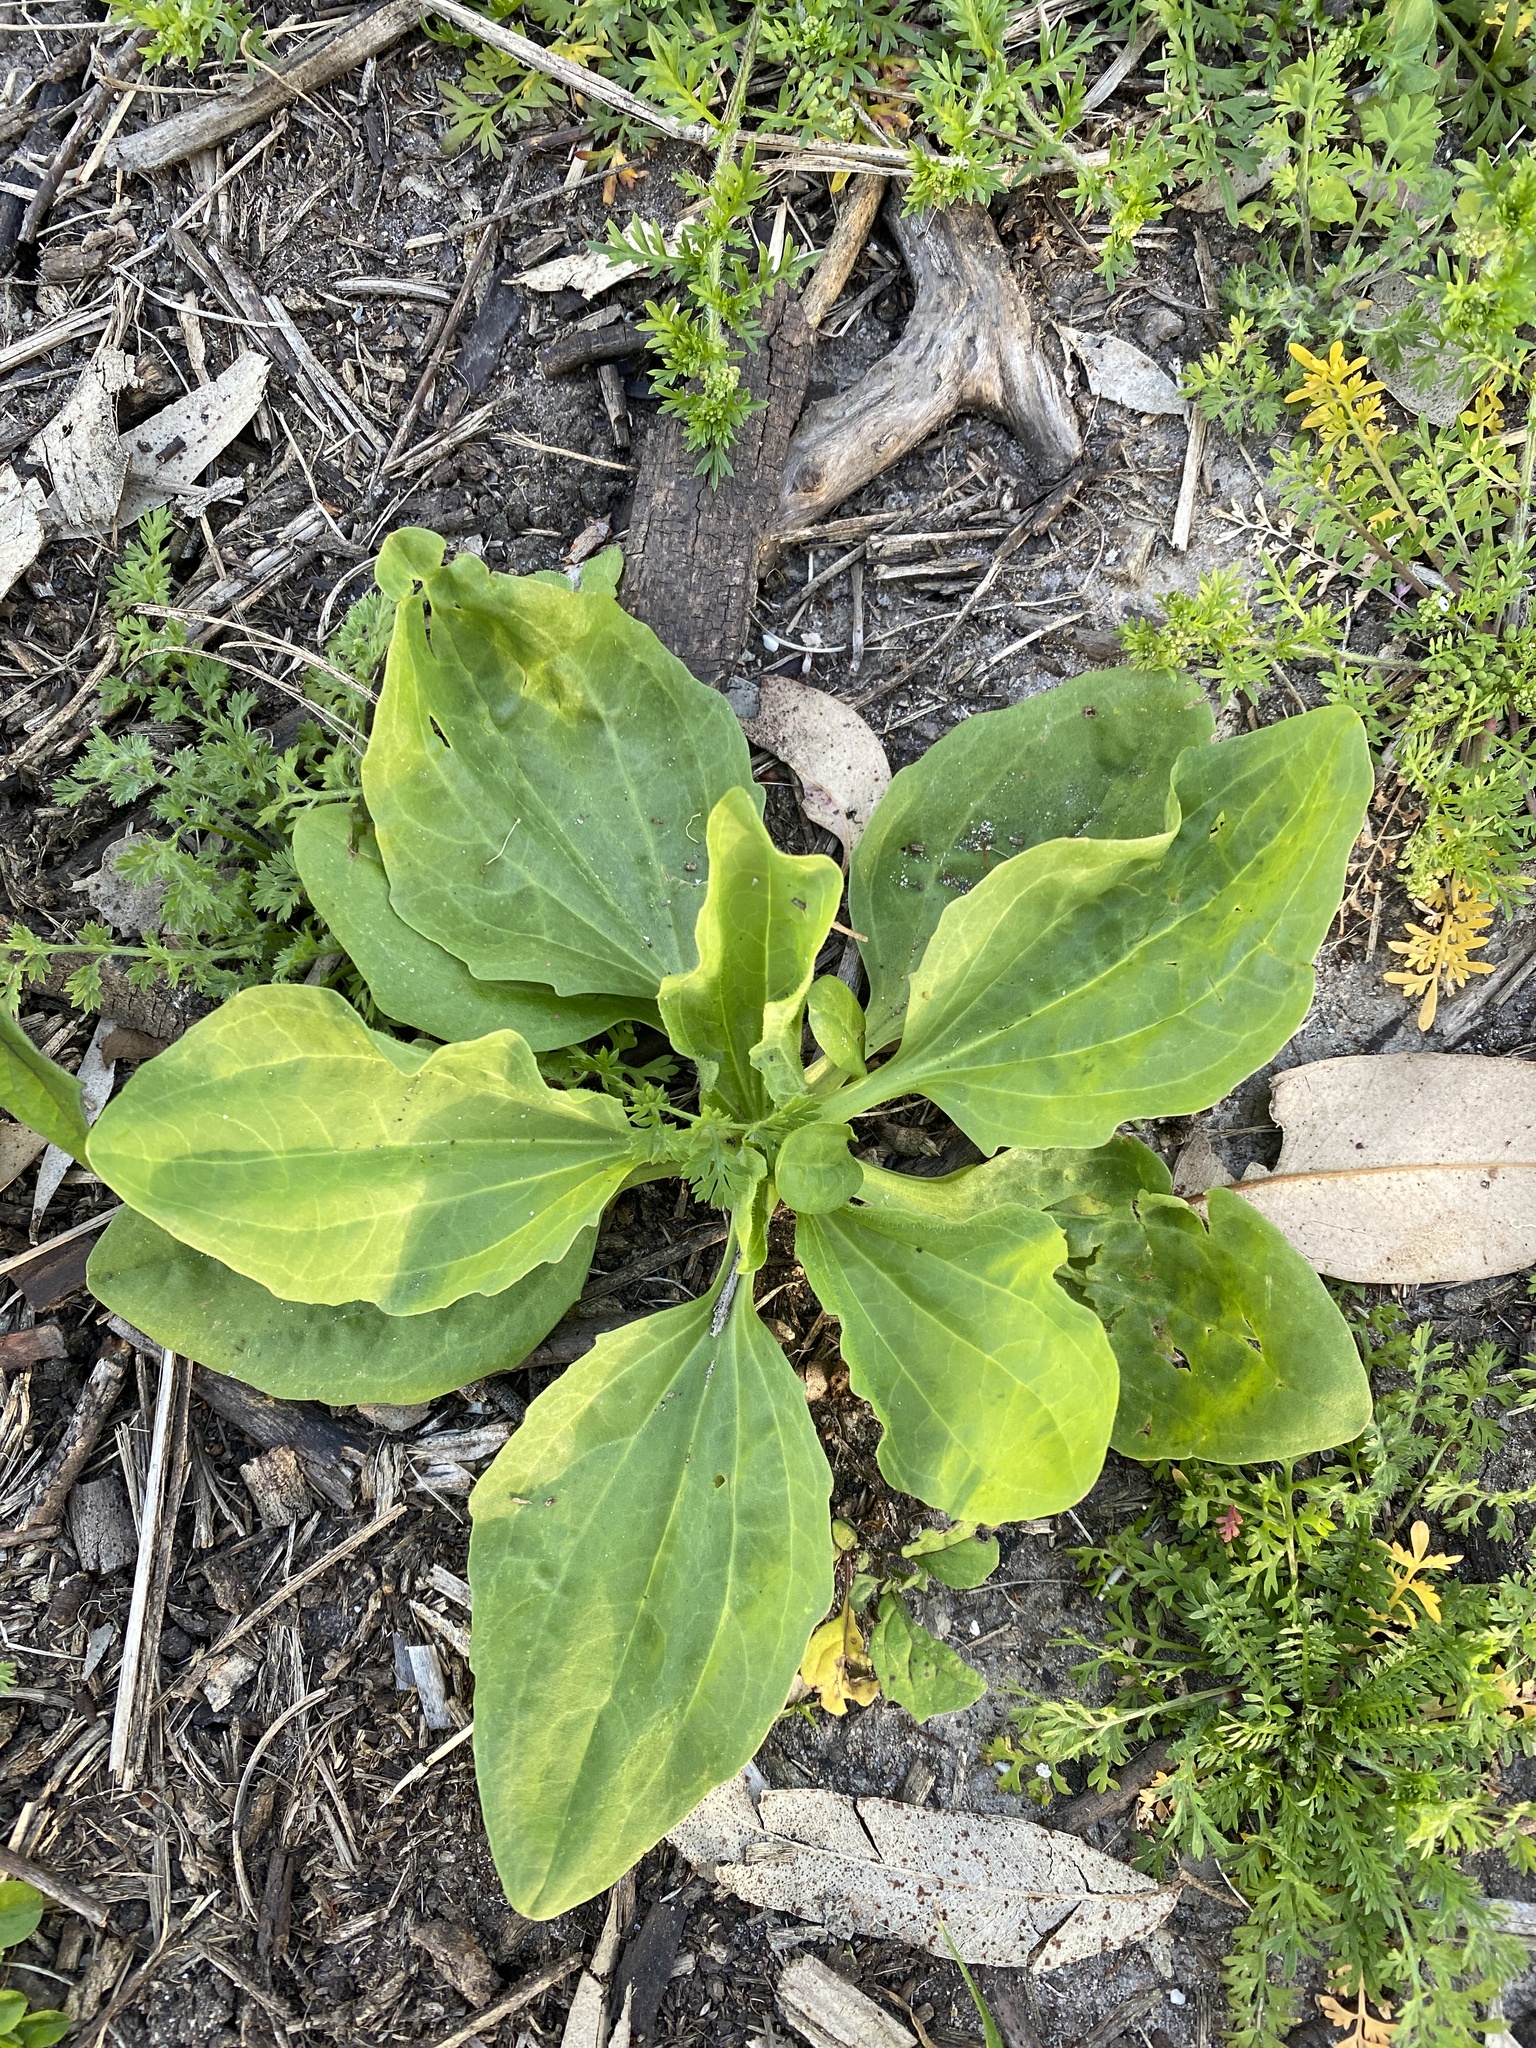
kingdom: Plantae
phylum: Tracheophyta
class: Magnoliopsida
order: Lamiales
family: Plantaginaceae
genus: Plantago
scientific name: Plantago major
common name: Common plantain
